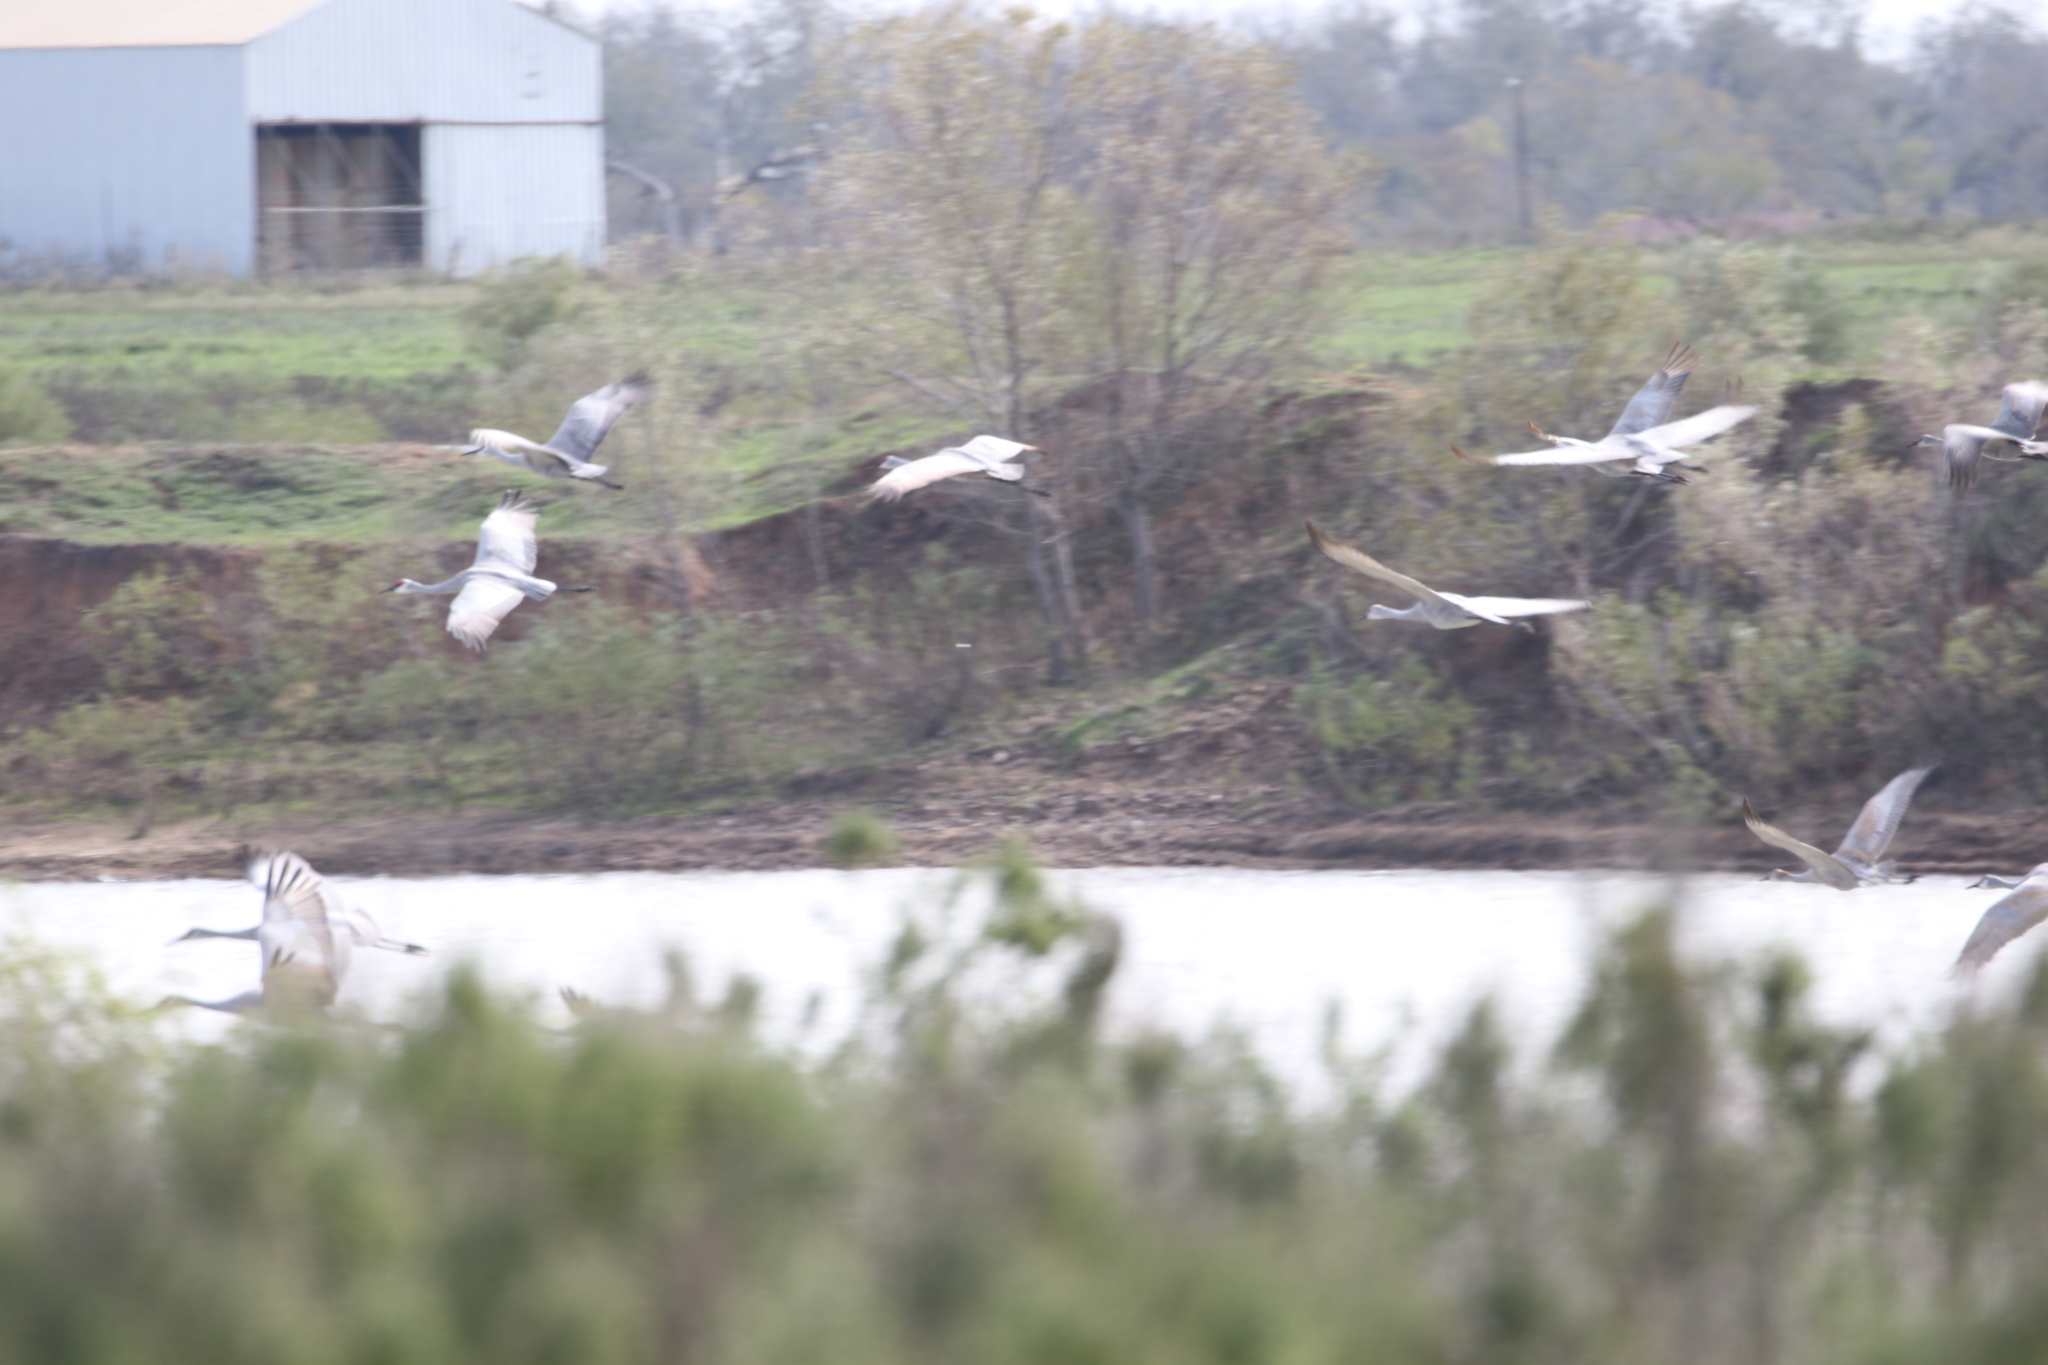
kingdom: Animalia
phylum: Chordata
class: Aves
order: Gruiformes
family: Gruidae
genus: Grus
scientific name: Grus canadensis
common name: Sandhill crane
